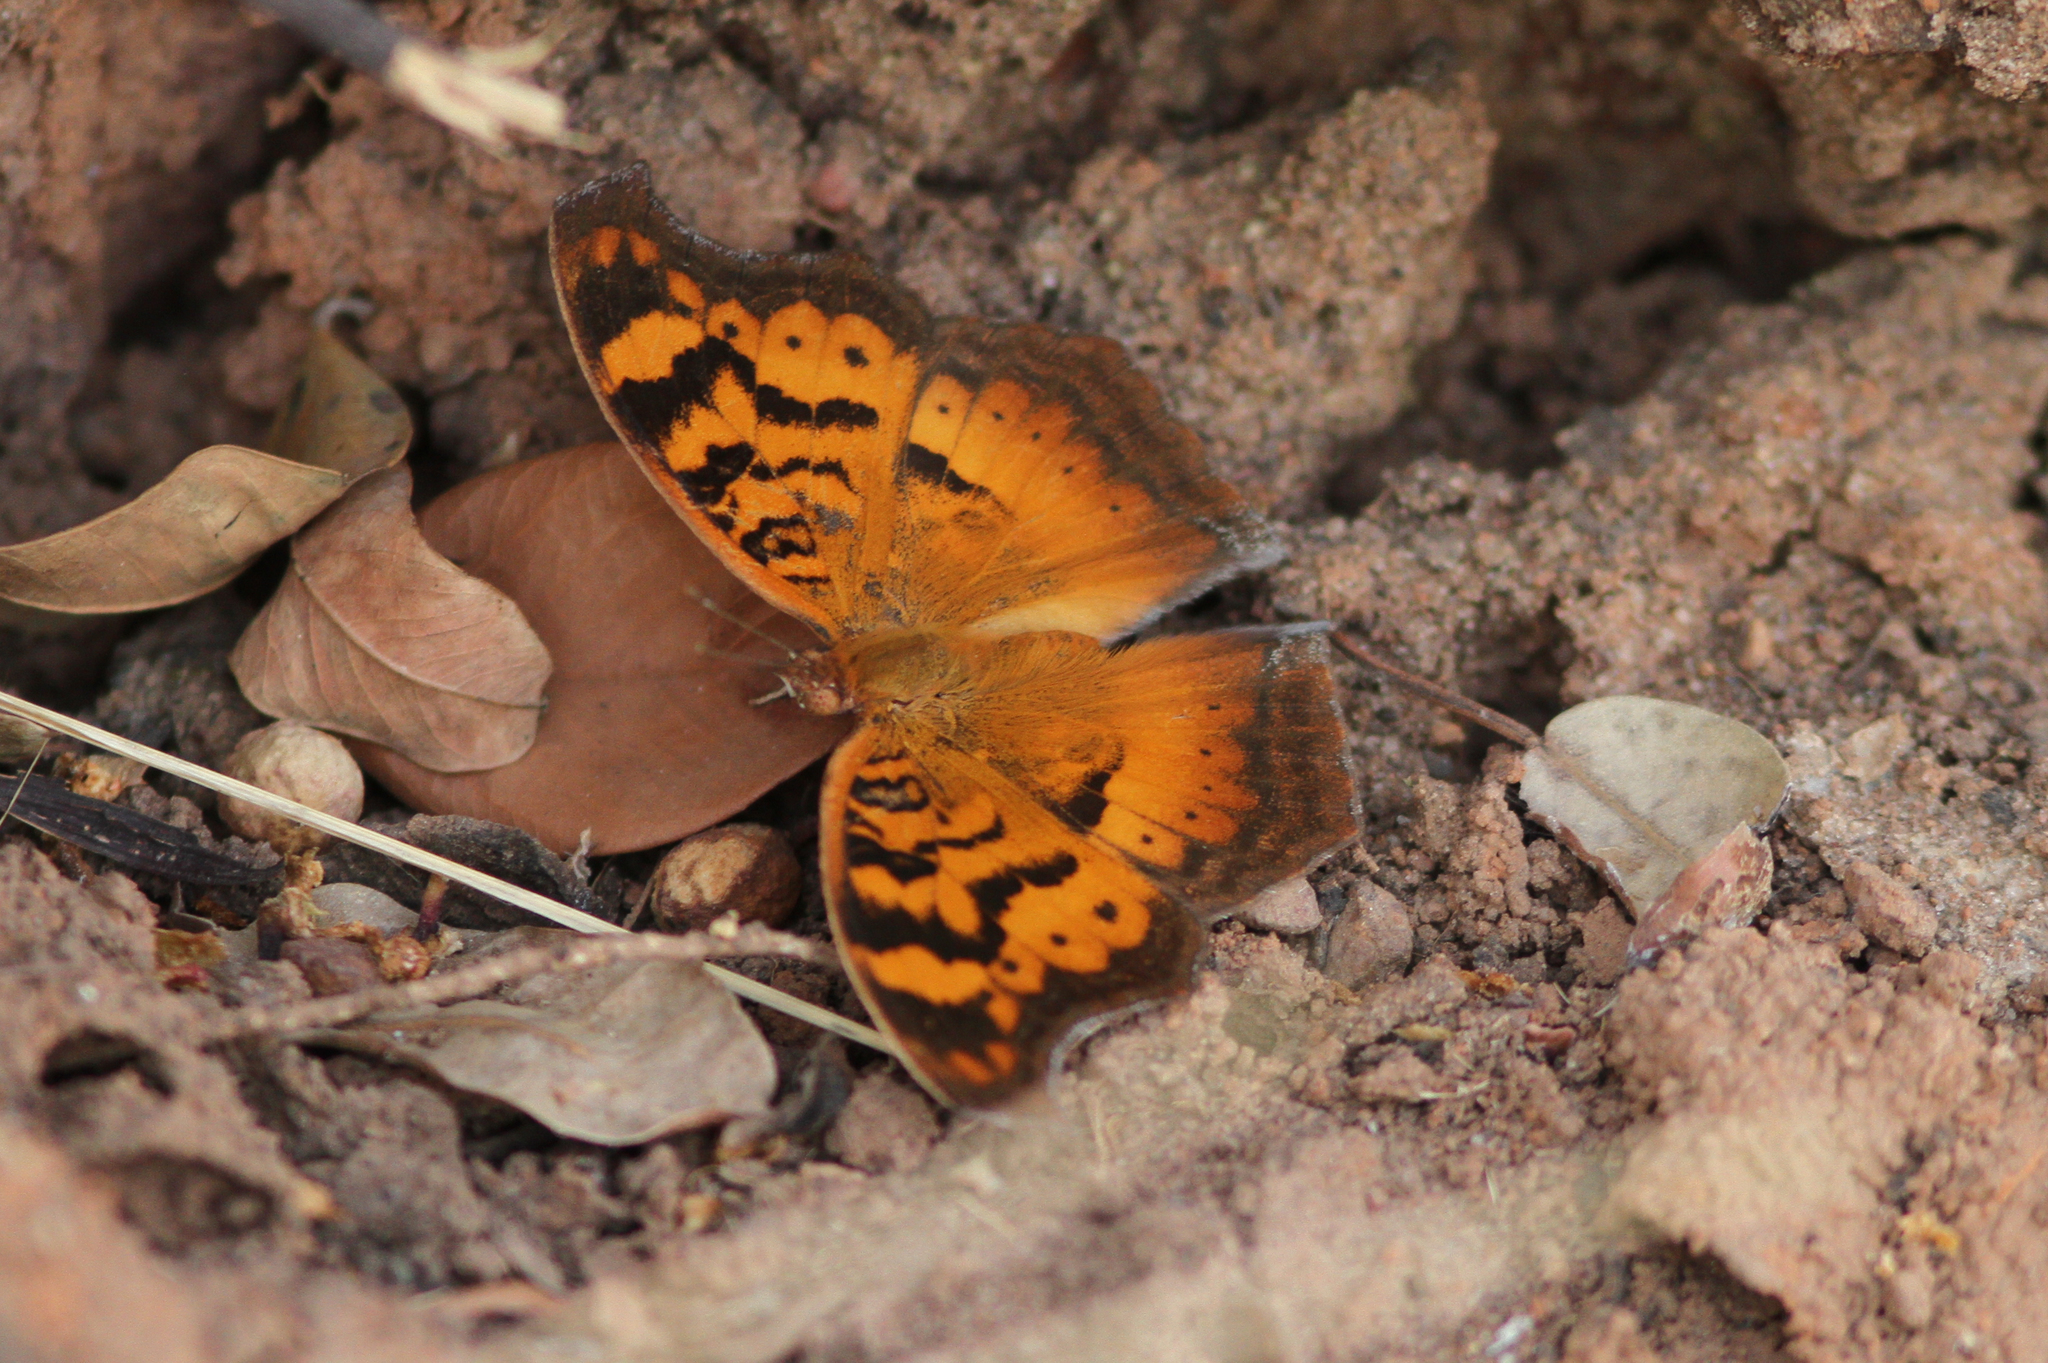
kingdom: Animalia
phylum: Arthropoda
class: Insecta
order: Lepidoptera
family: Nymphalidae
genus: Junonia
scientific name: Junonia antilope
